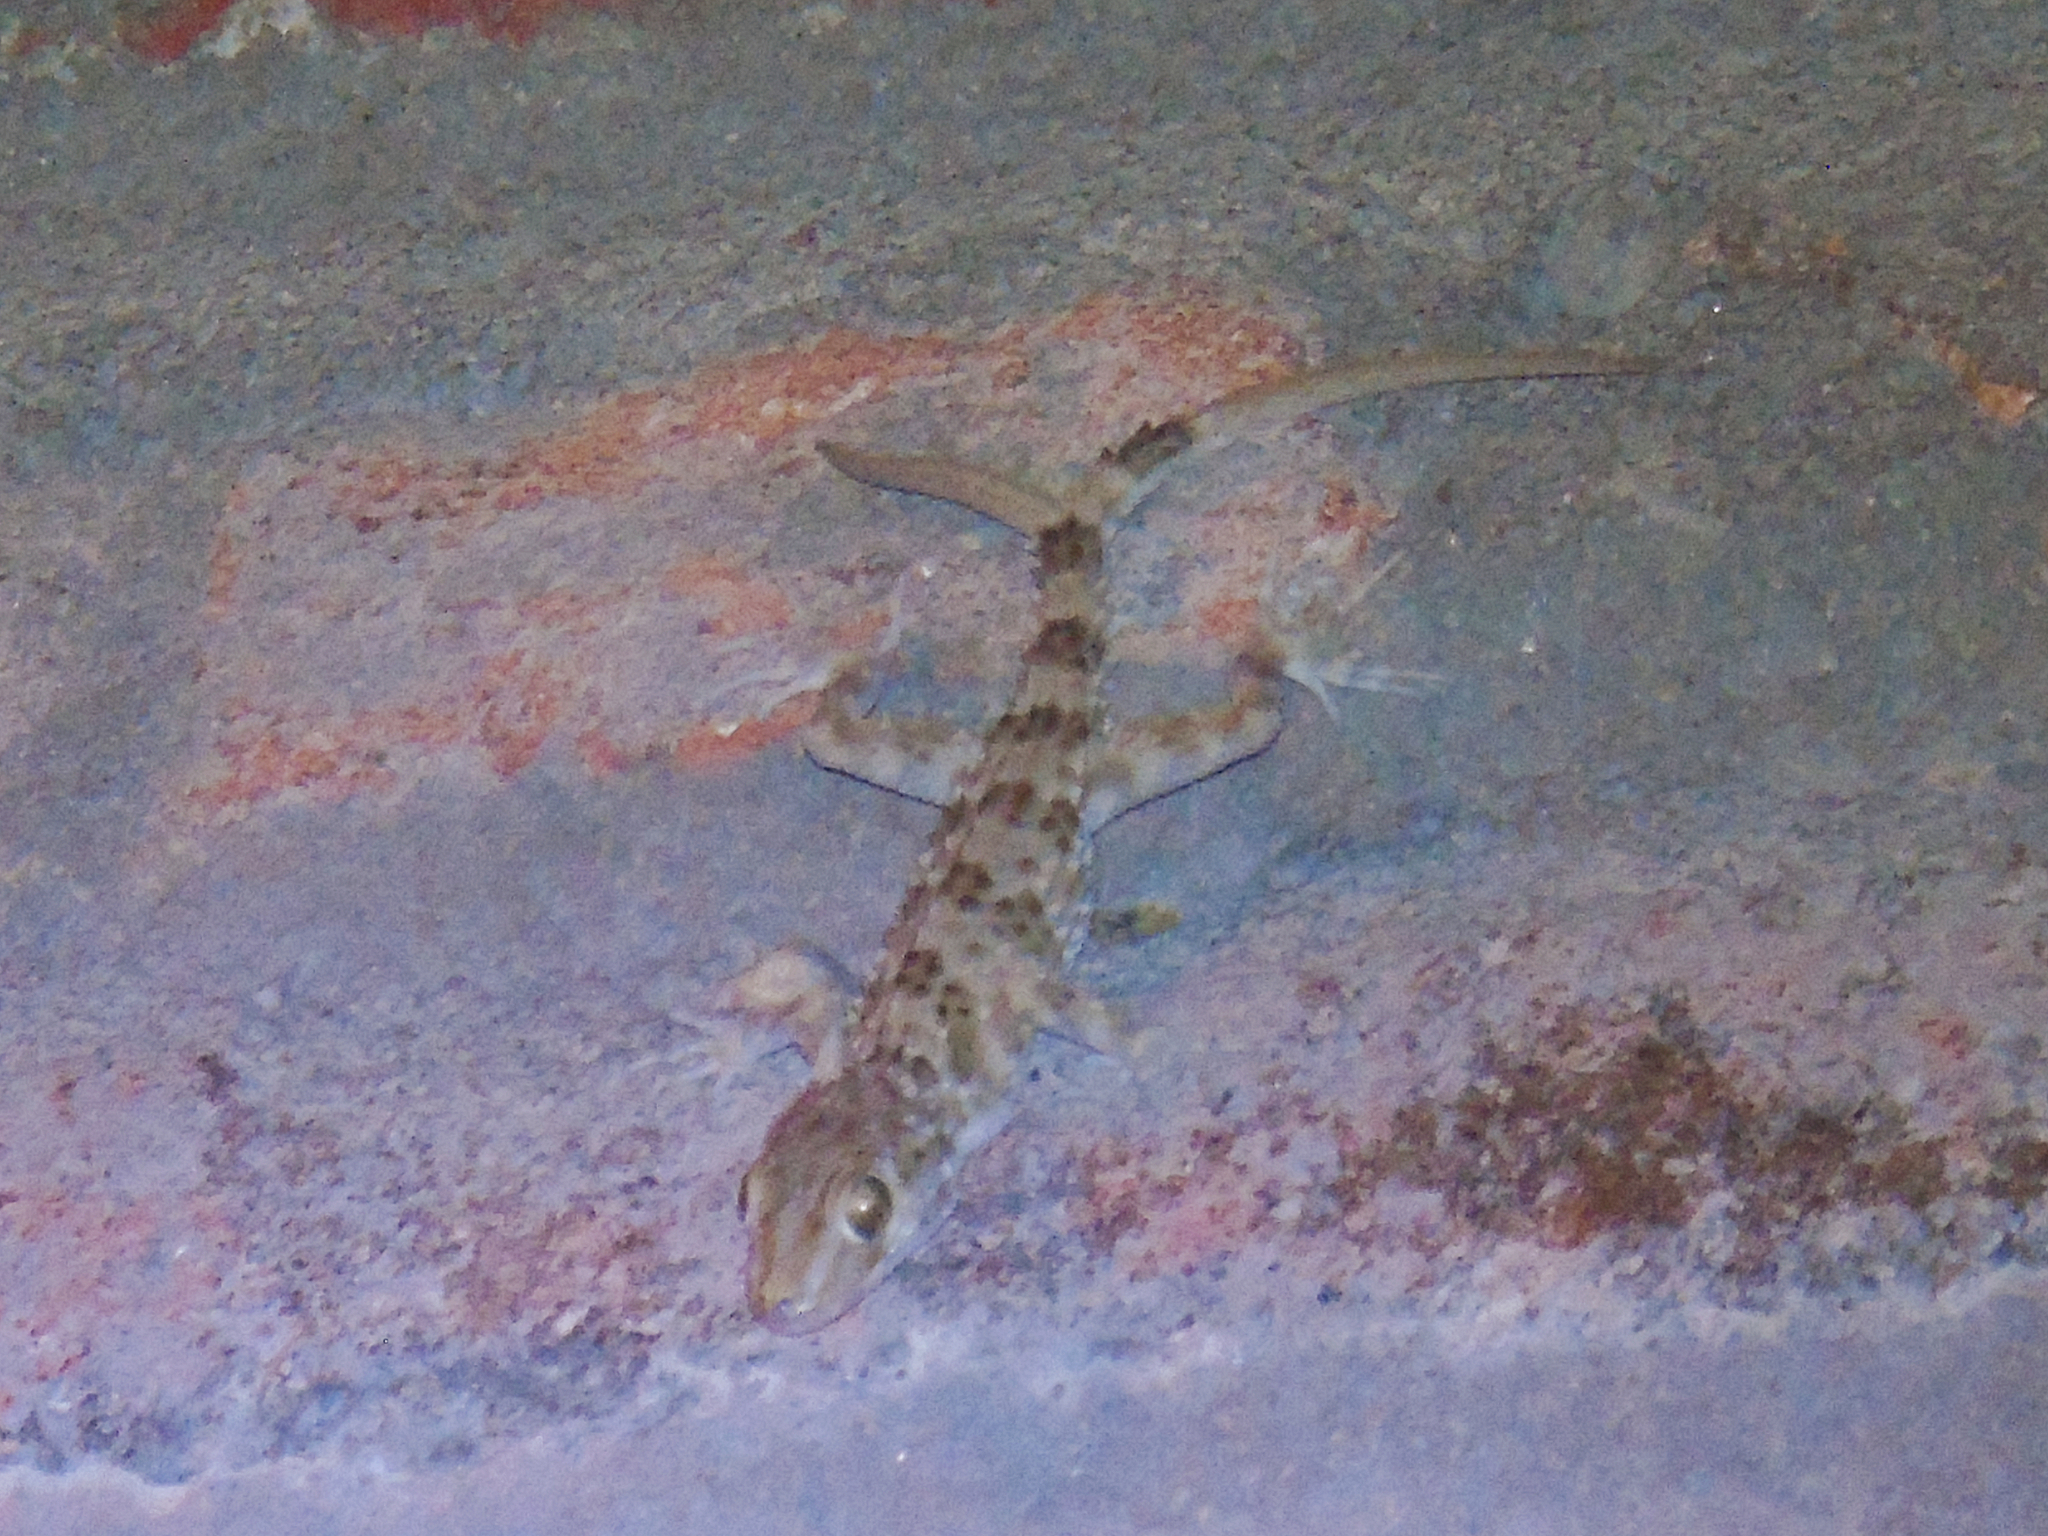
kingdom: Animalia
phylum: Chordata
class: Squamata
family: Gekkonidae
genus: Tenuidactylus
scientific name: Tenuidactylus caspius
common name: Caspian bent-toed gecko
